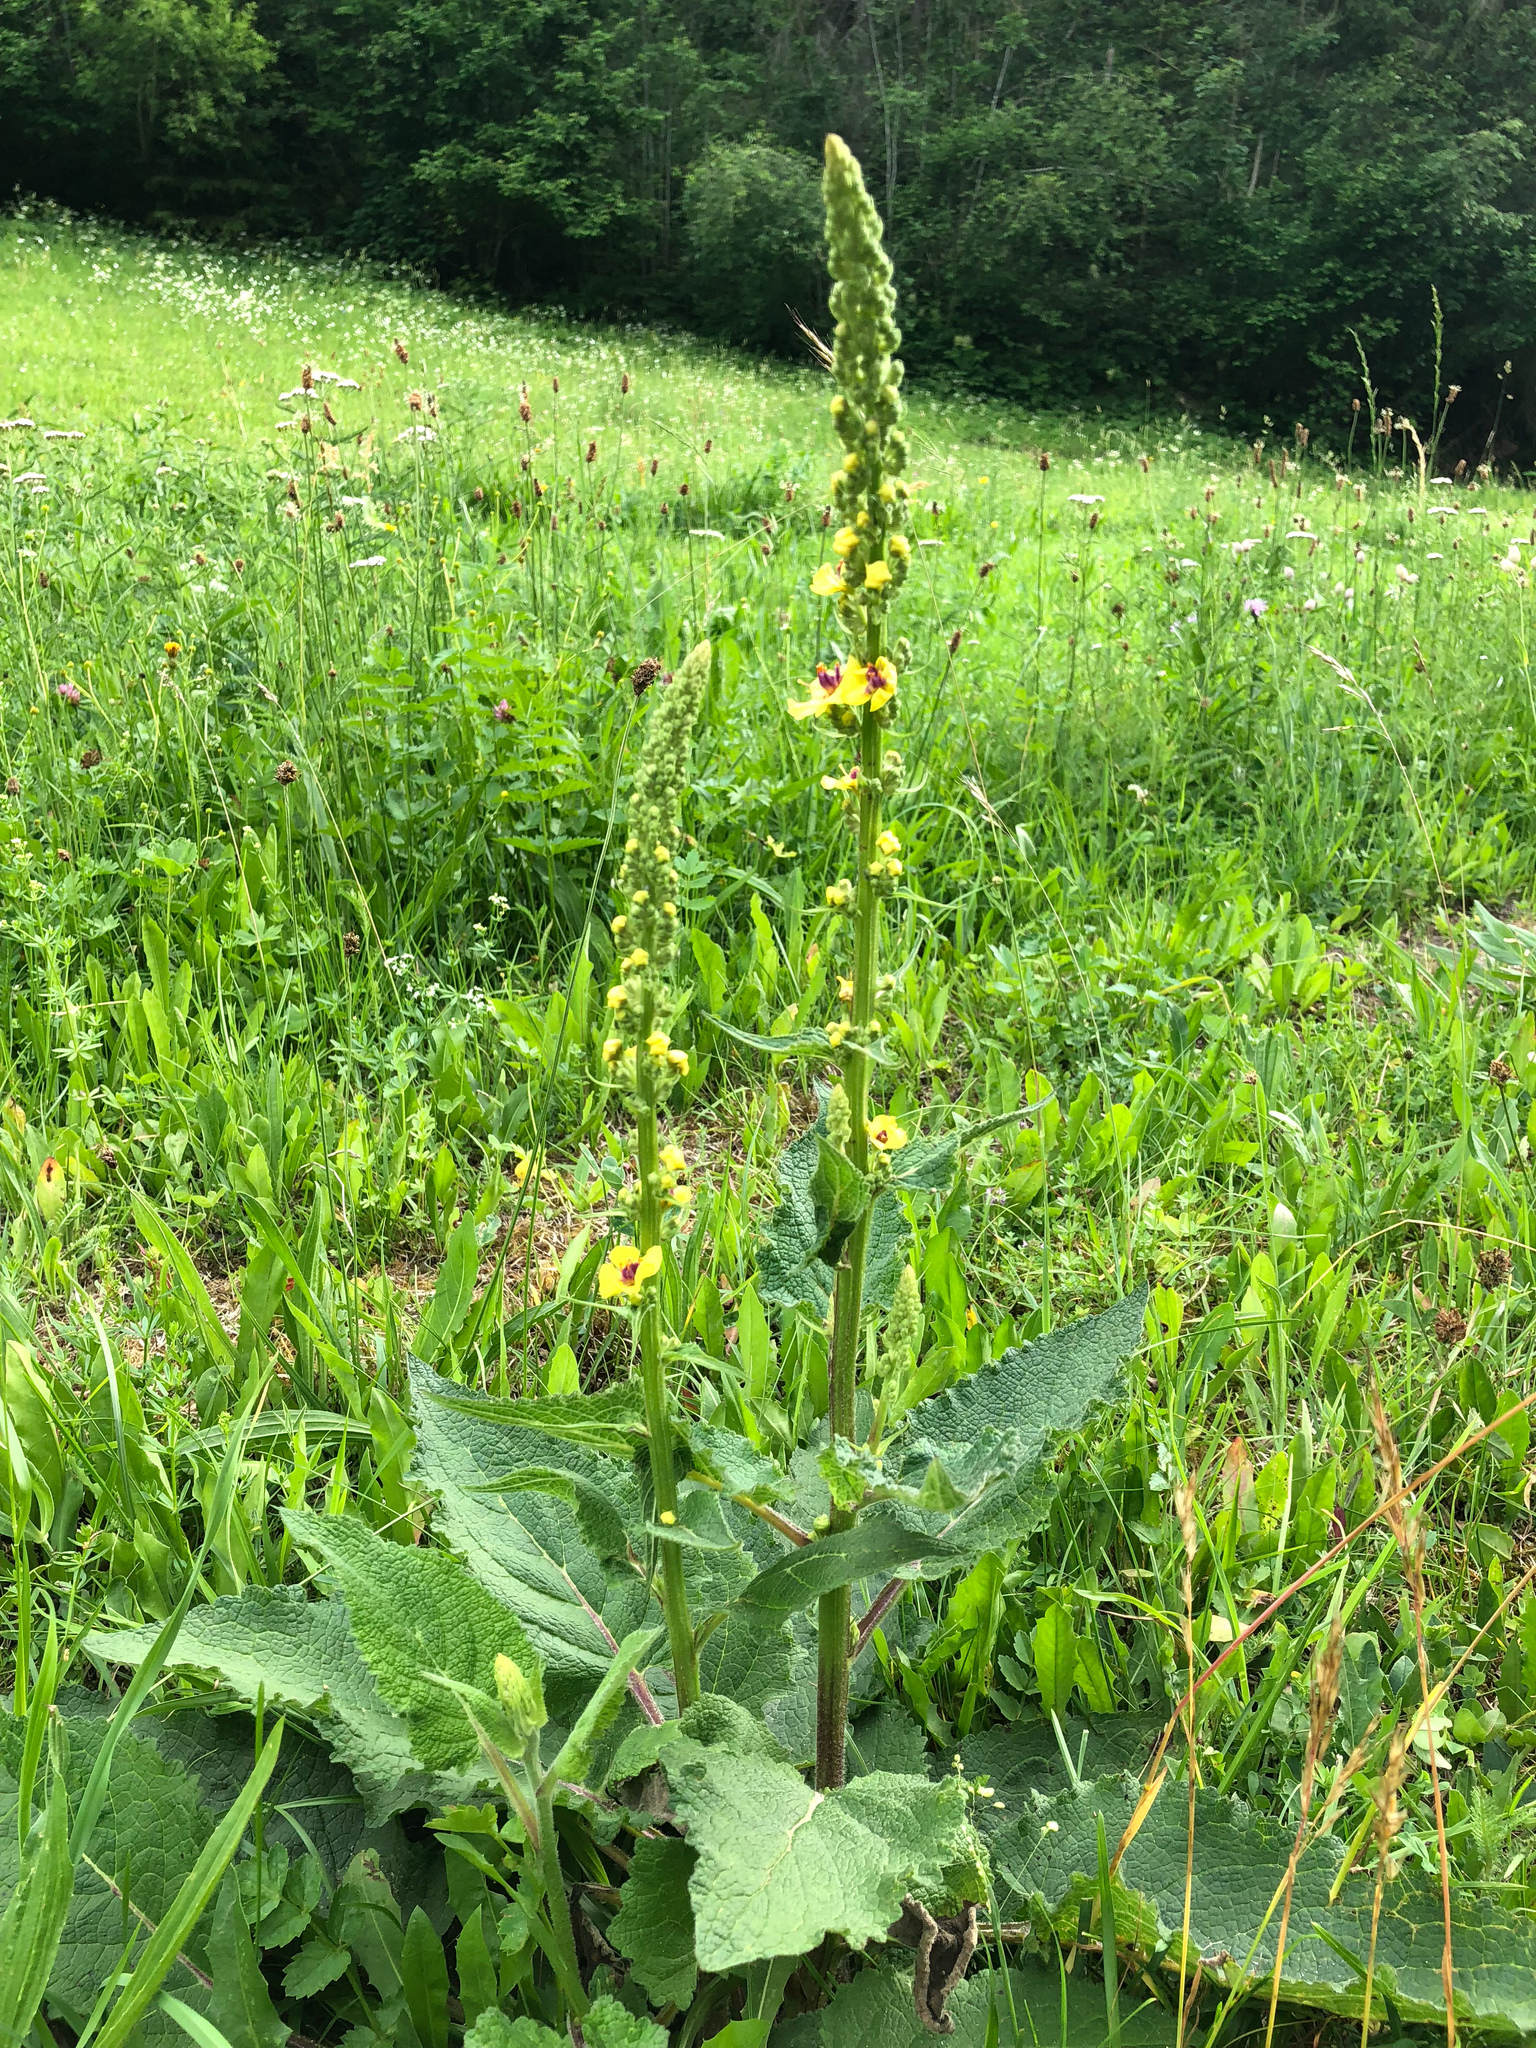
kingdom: Plantae
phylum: Tracheophyta
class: Magnoliopsida
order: Lamiales
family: Scrophulariaceae
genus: Verbascum
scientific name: Verbascum nigrum
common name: Dark mullein
